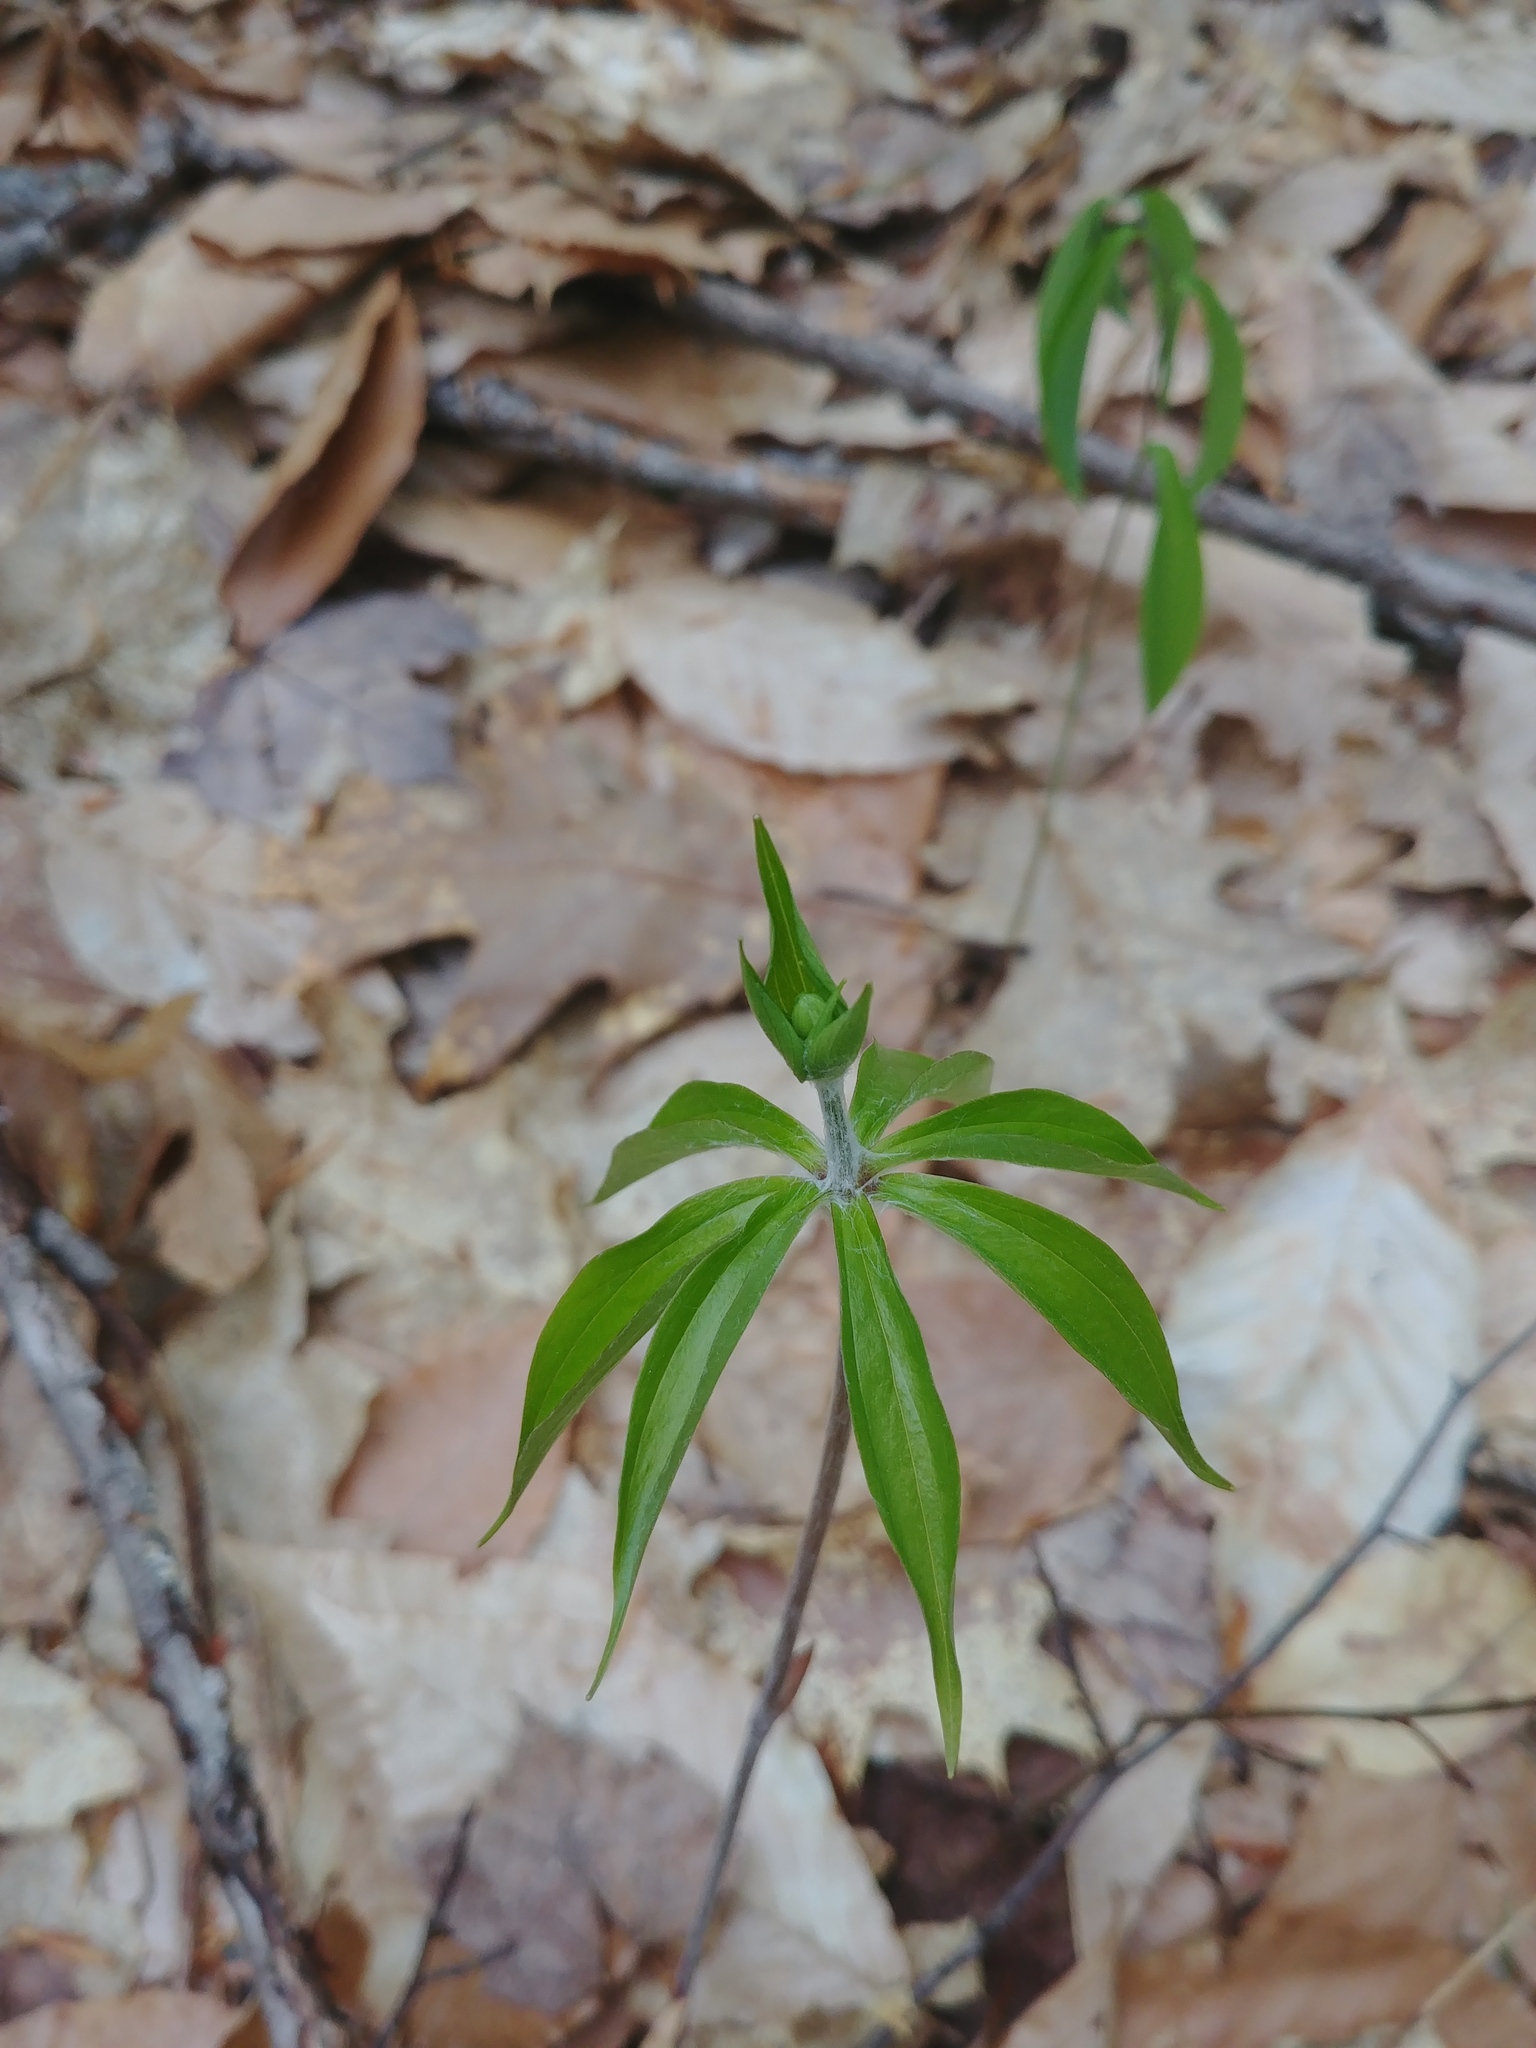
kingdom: Plantae
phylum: Tracheophyta
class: Liliopsida
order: Liliales
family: Liliaceae
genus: Medeola
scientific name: Medeola virginiana
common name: Indian cucumber-root
